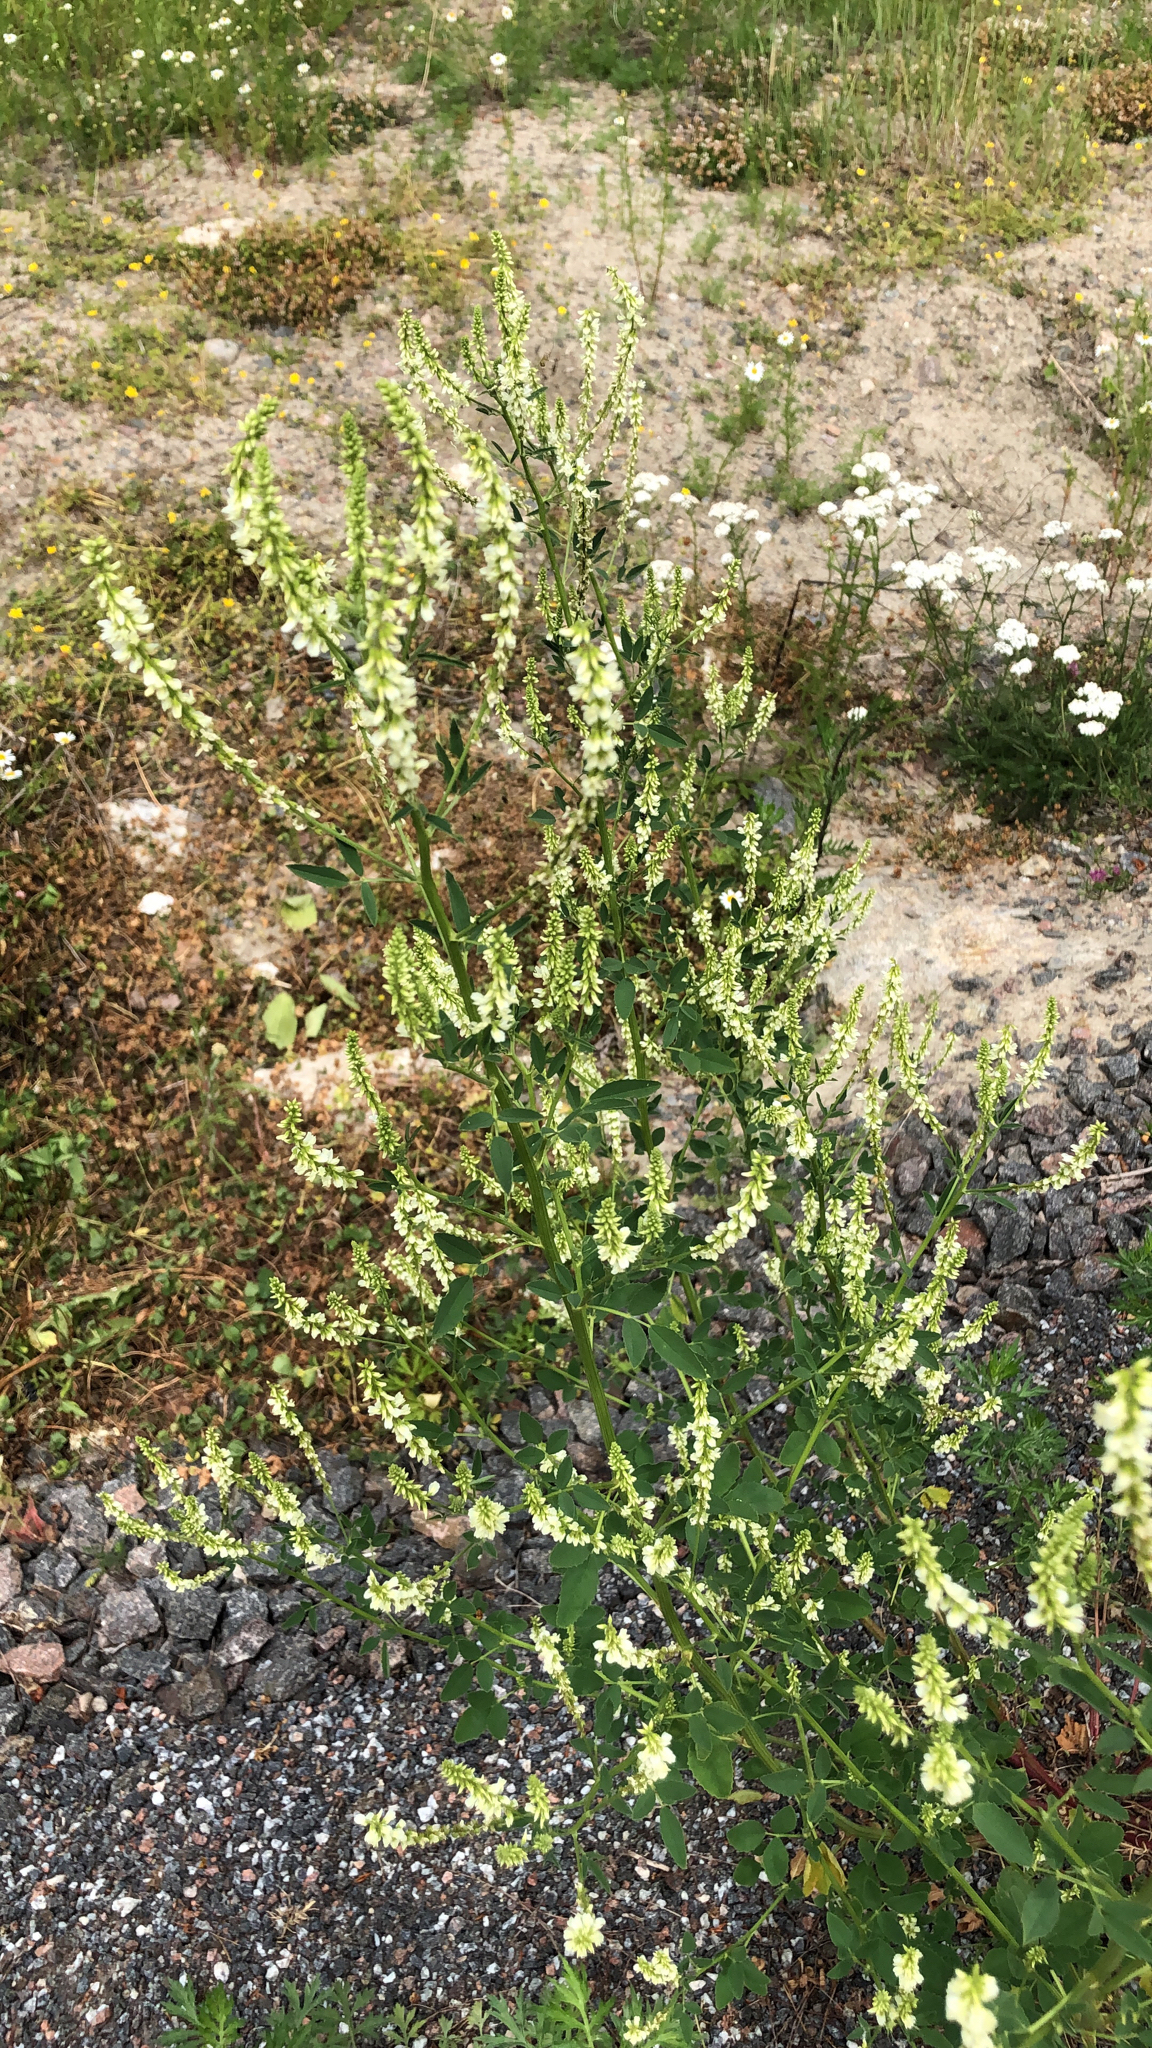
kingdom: Plantae
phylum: Tracheophyta
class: Magnoliopsida
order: Fabales
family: Fabaceae
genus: Melilotus
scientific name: Melilotus albus
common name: White melilot
